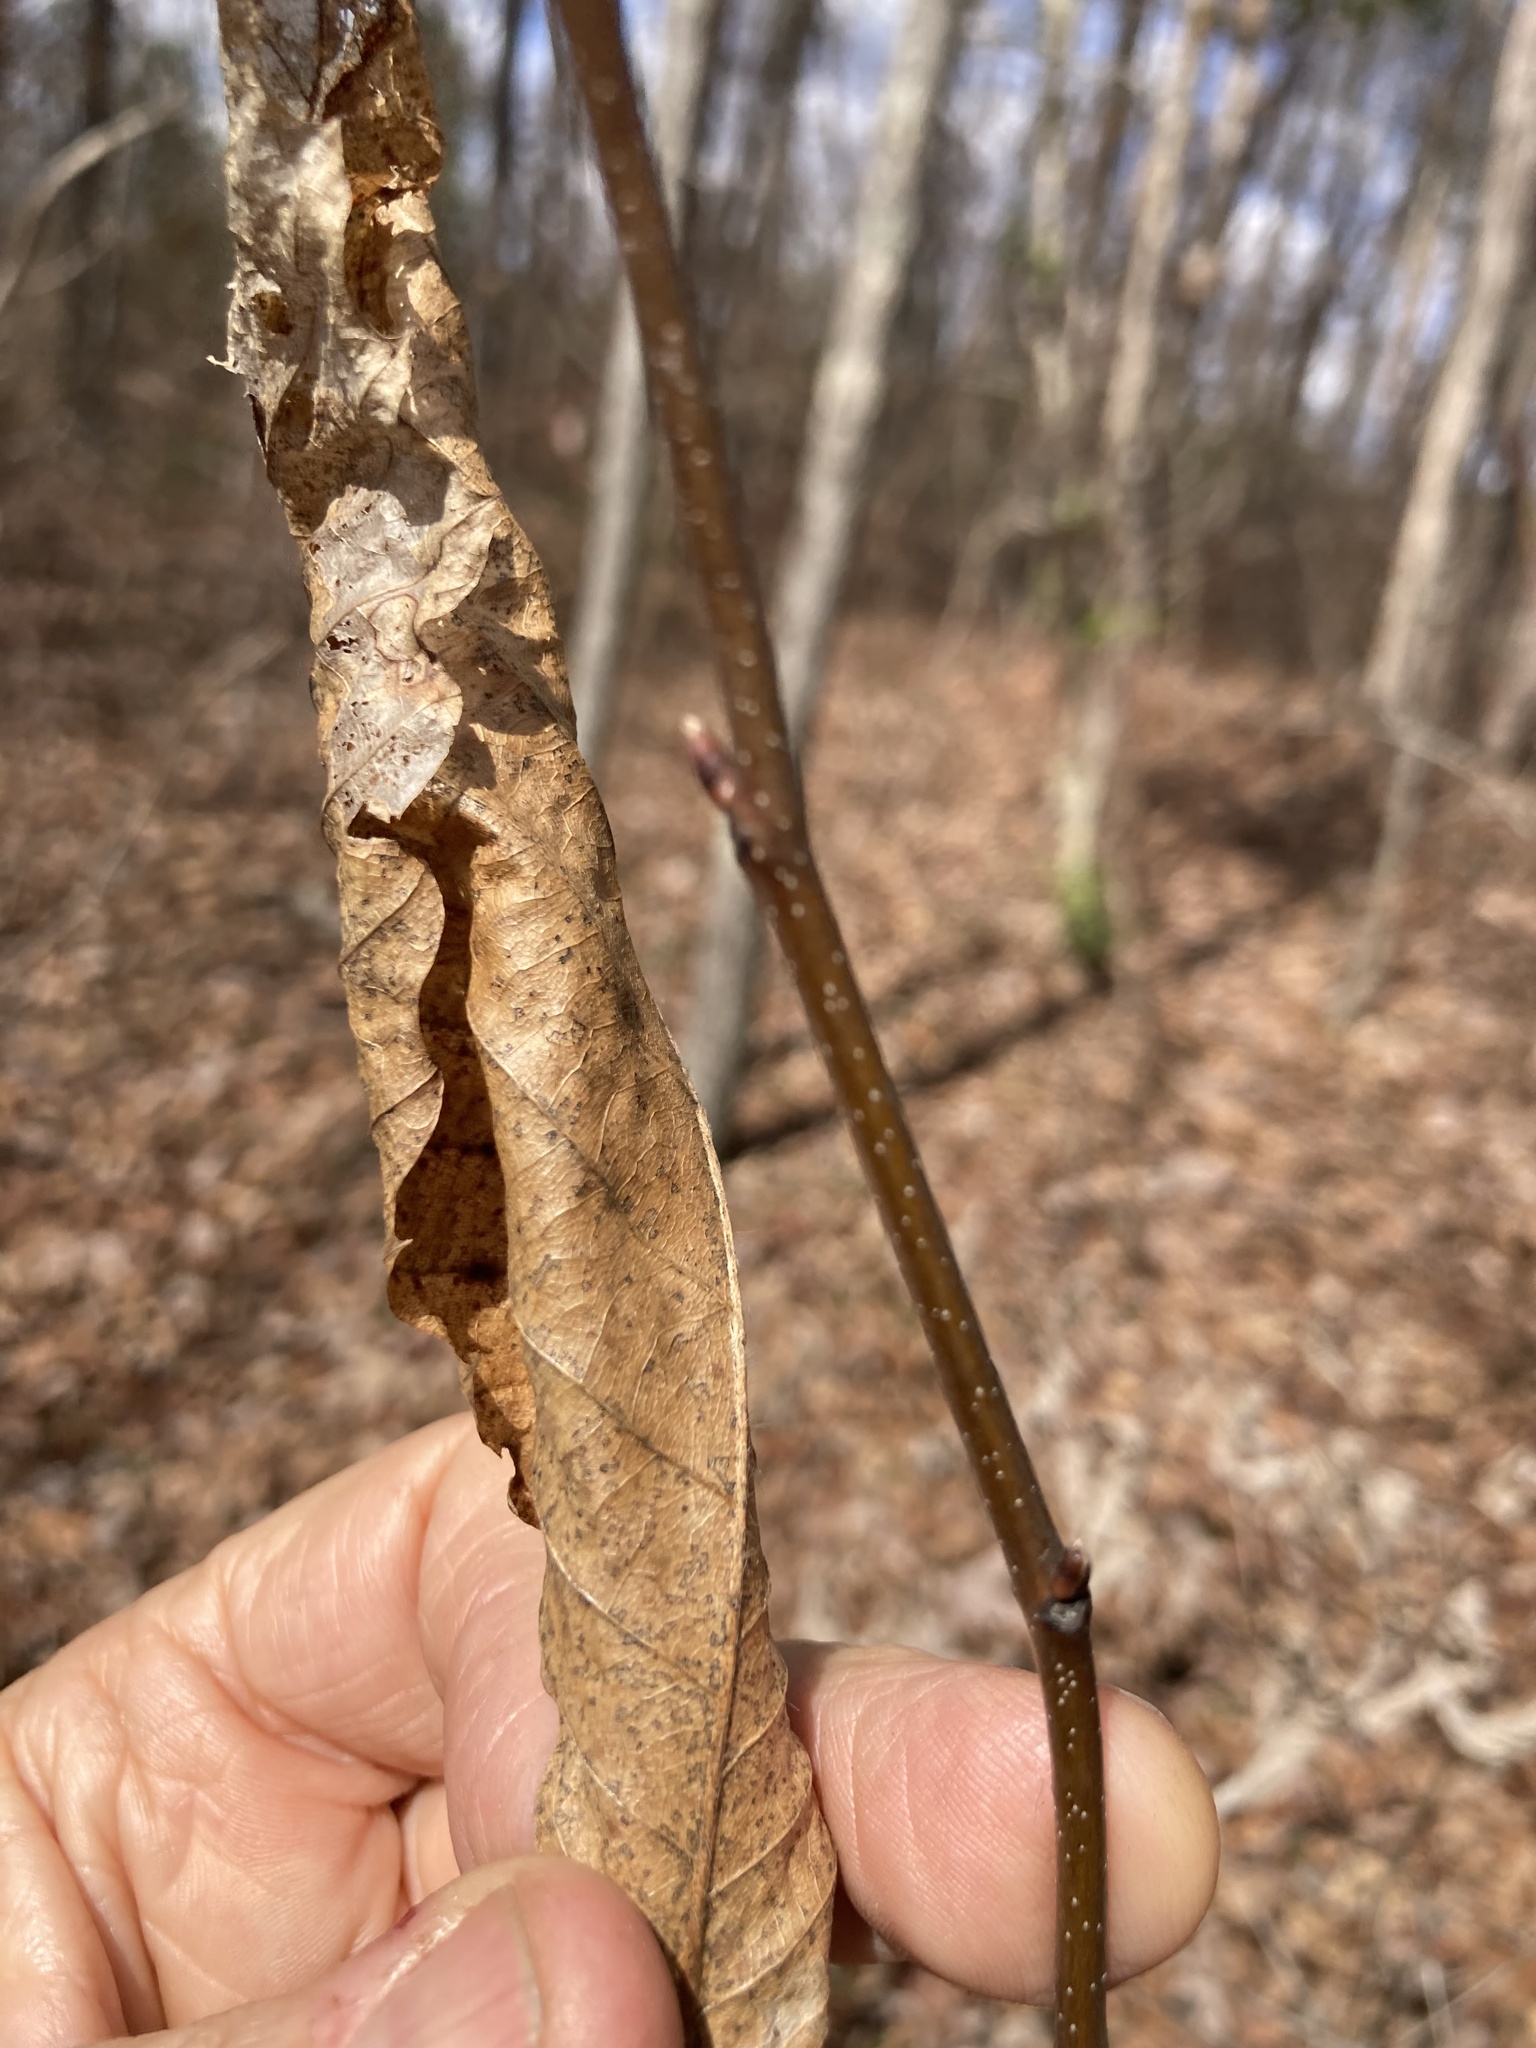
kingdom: Plantae
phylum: Tracheophyta
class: Magnoliopsida
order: Fagales
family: Fagaceae
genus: Castanea
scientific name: Castanea dentata
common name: American chestnut
